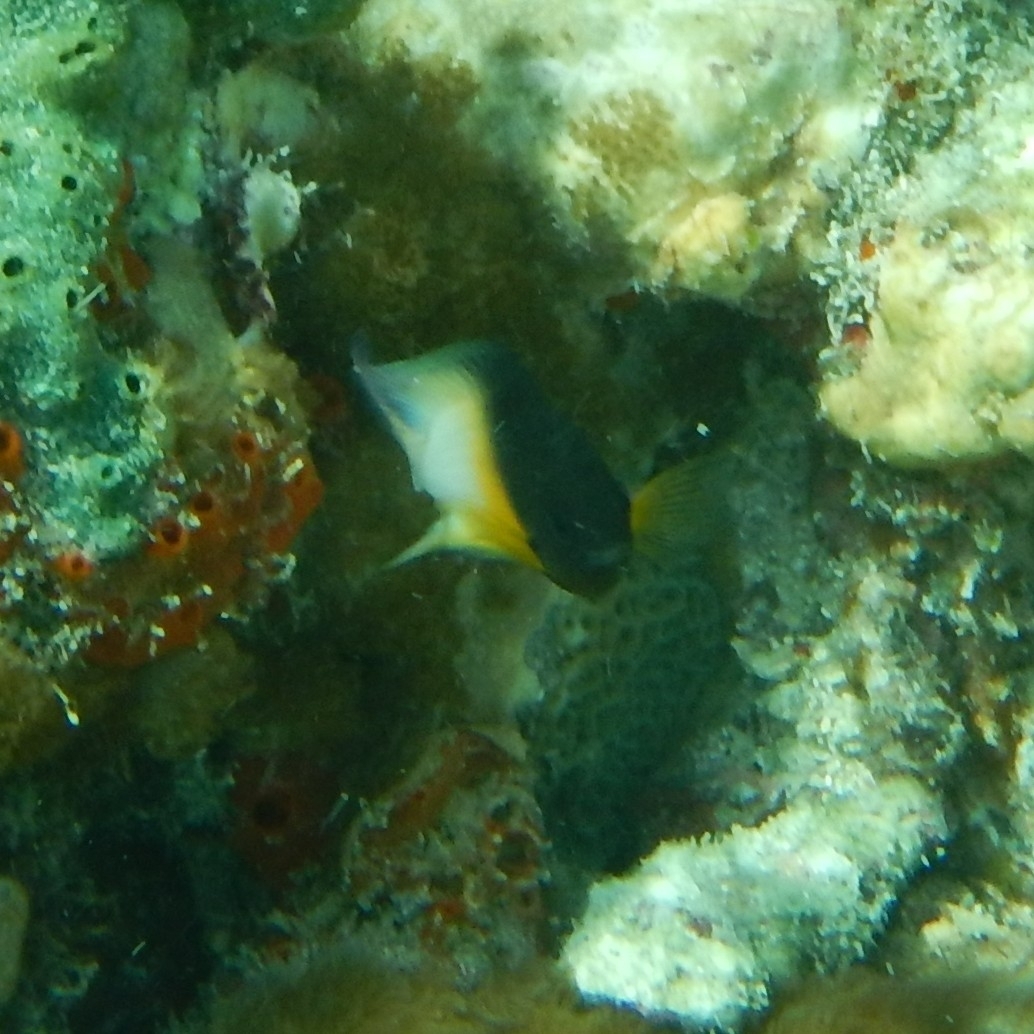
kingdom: Animalia
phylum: Chordata
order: Perciformes
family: Pomacentridae
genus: Stegastes
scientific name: Stegastes partitus
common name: Bicolor damselfish
